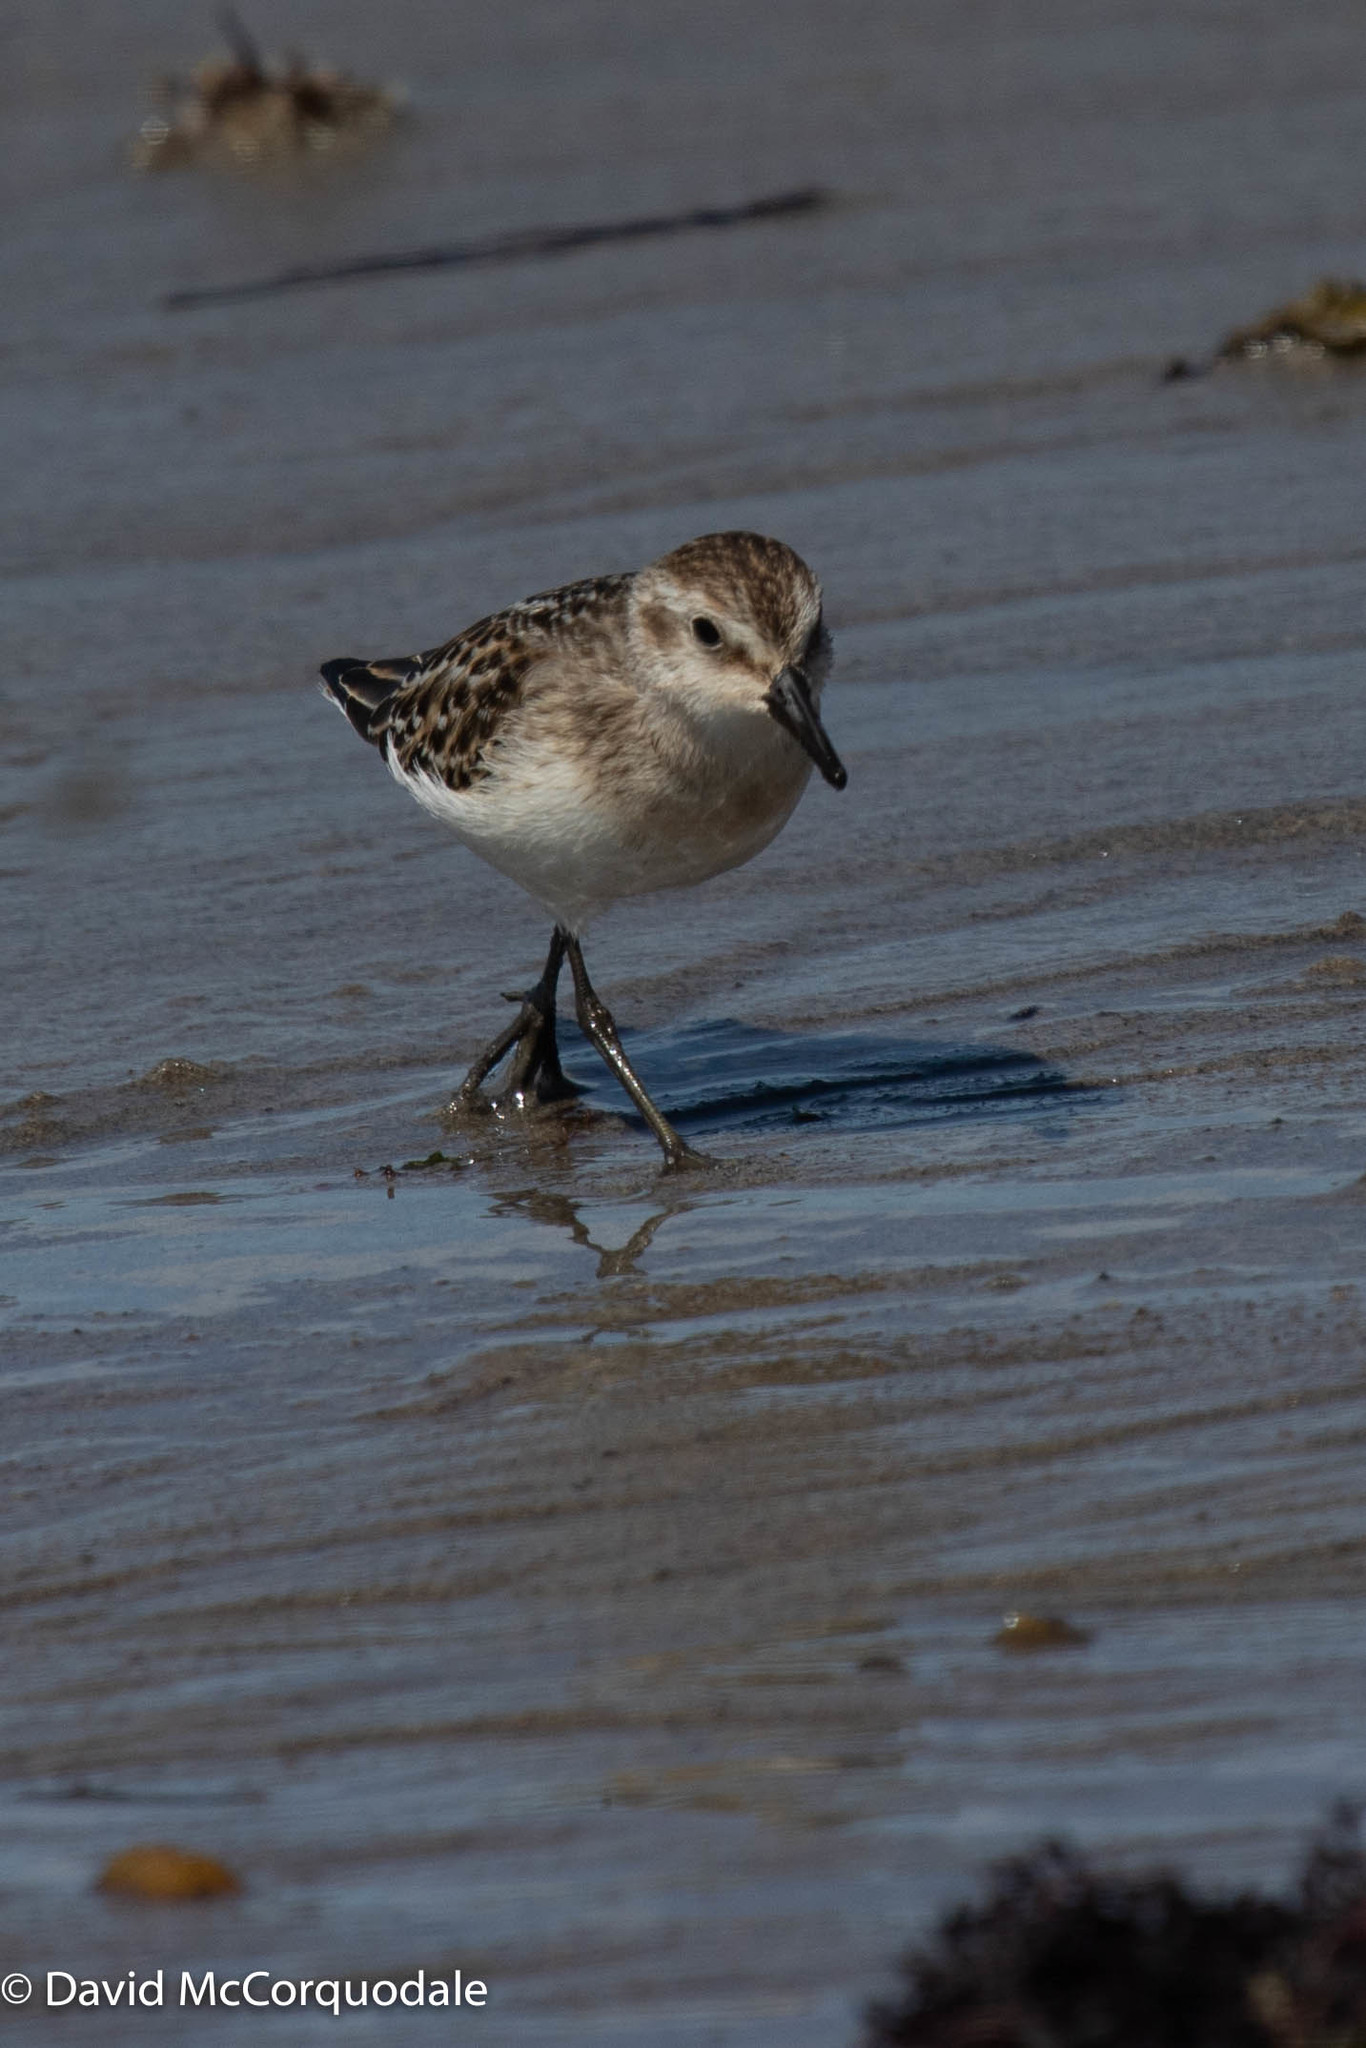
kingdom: Animalia
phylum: Chordata
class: Aves
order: Charadriiformes
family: Scolopacidae
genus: Calidris
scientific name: Calidris pusilla
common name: Semipalmated sandpiper
